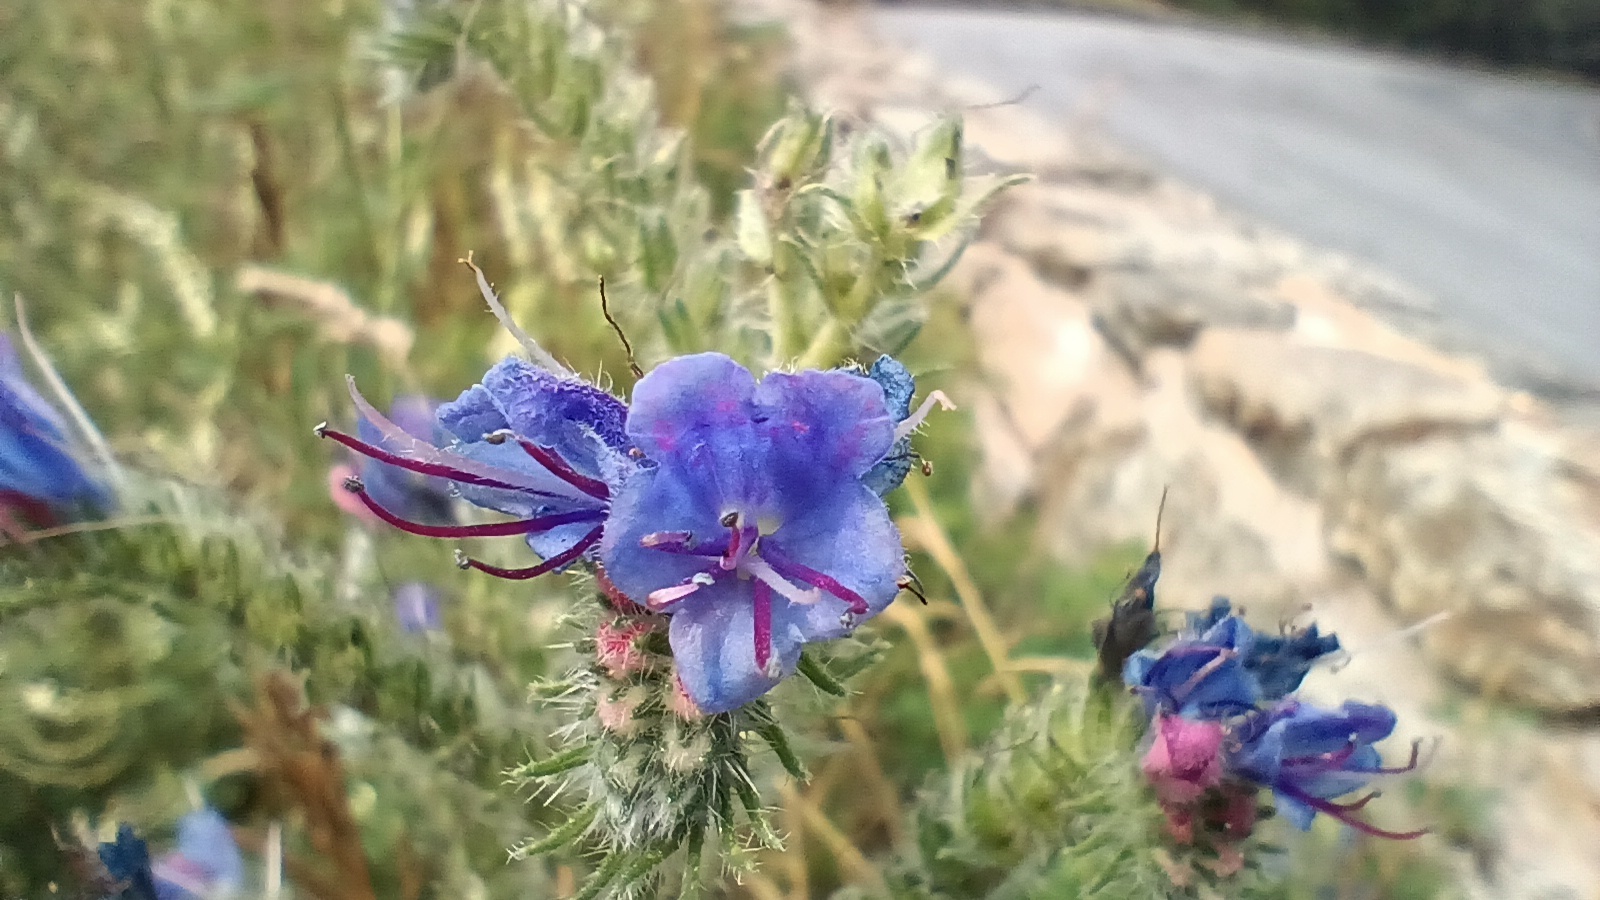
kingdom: Plantae
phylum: Tracheophyta
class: Magnoliopsida
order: Boraginales
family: Boraginaceae
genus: Echium
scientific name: Echium vulgare
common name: Common viper's bugloss
